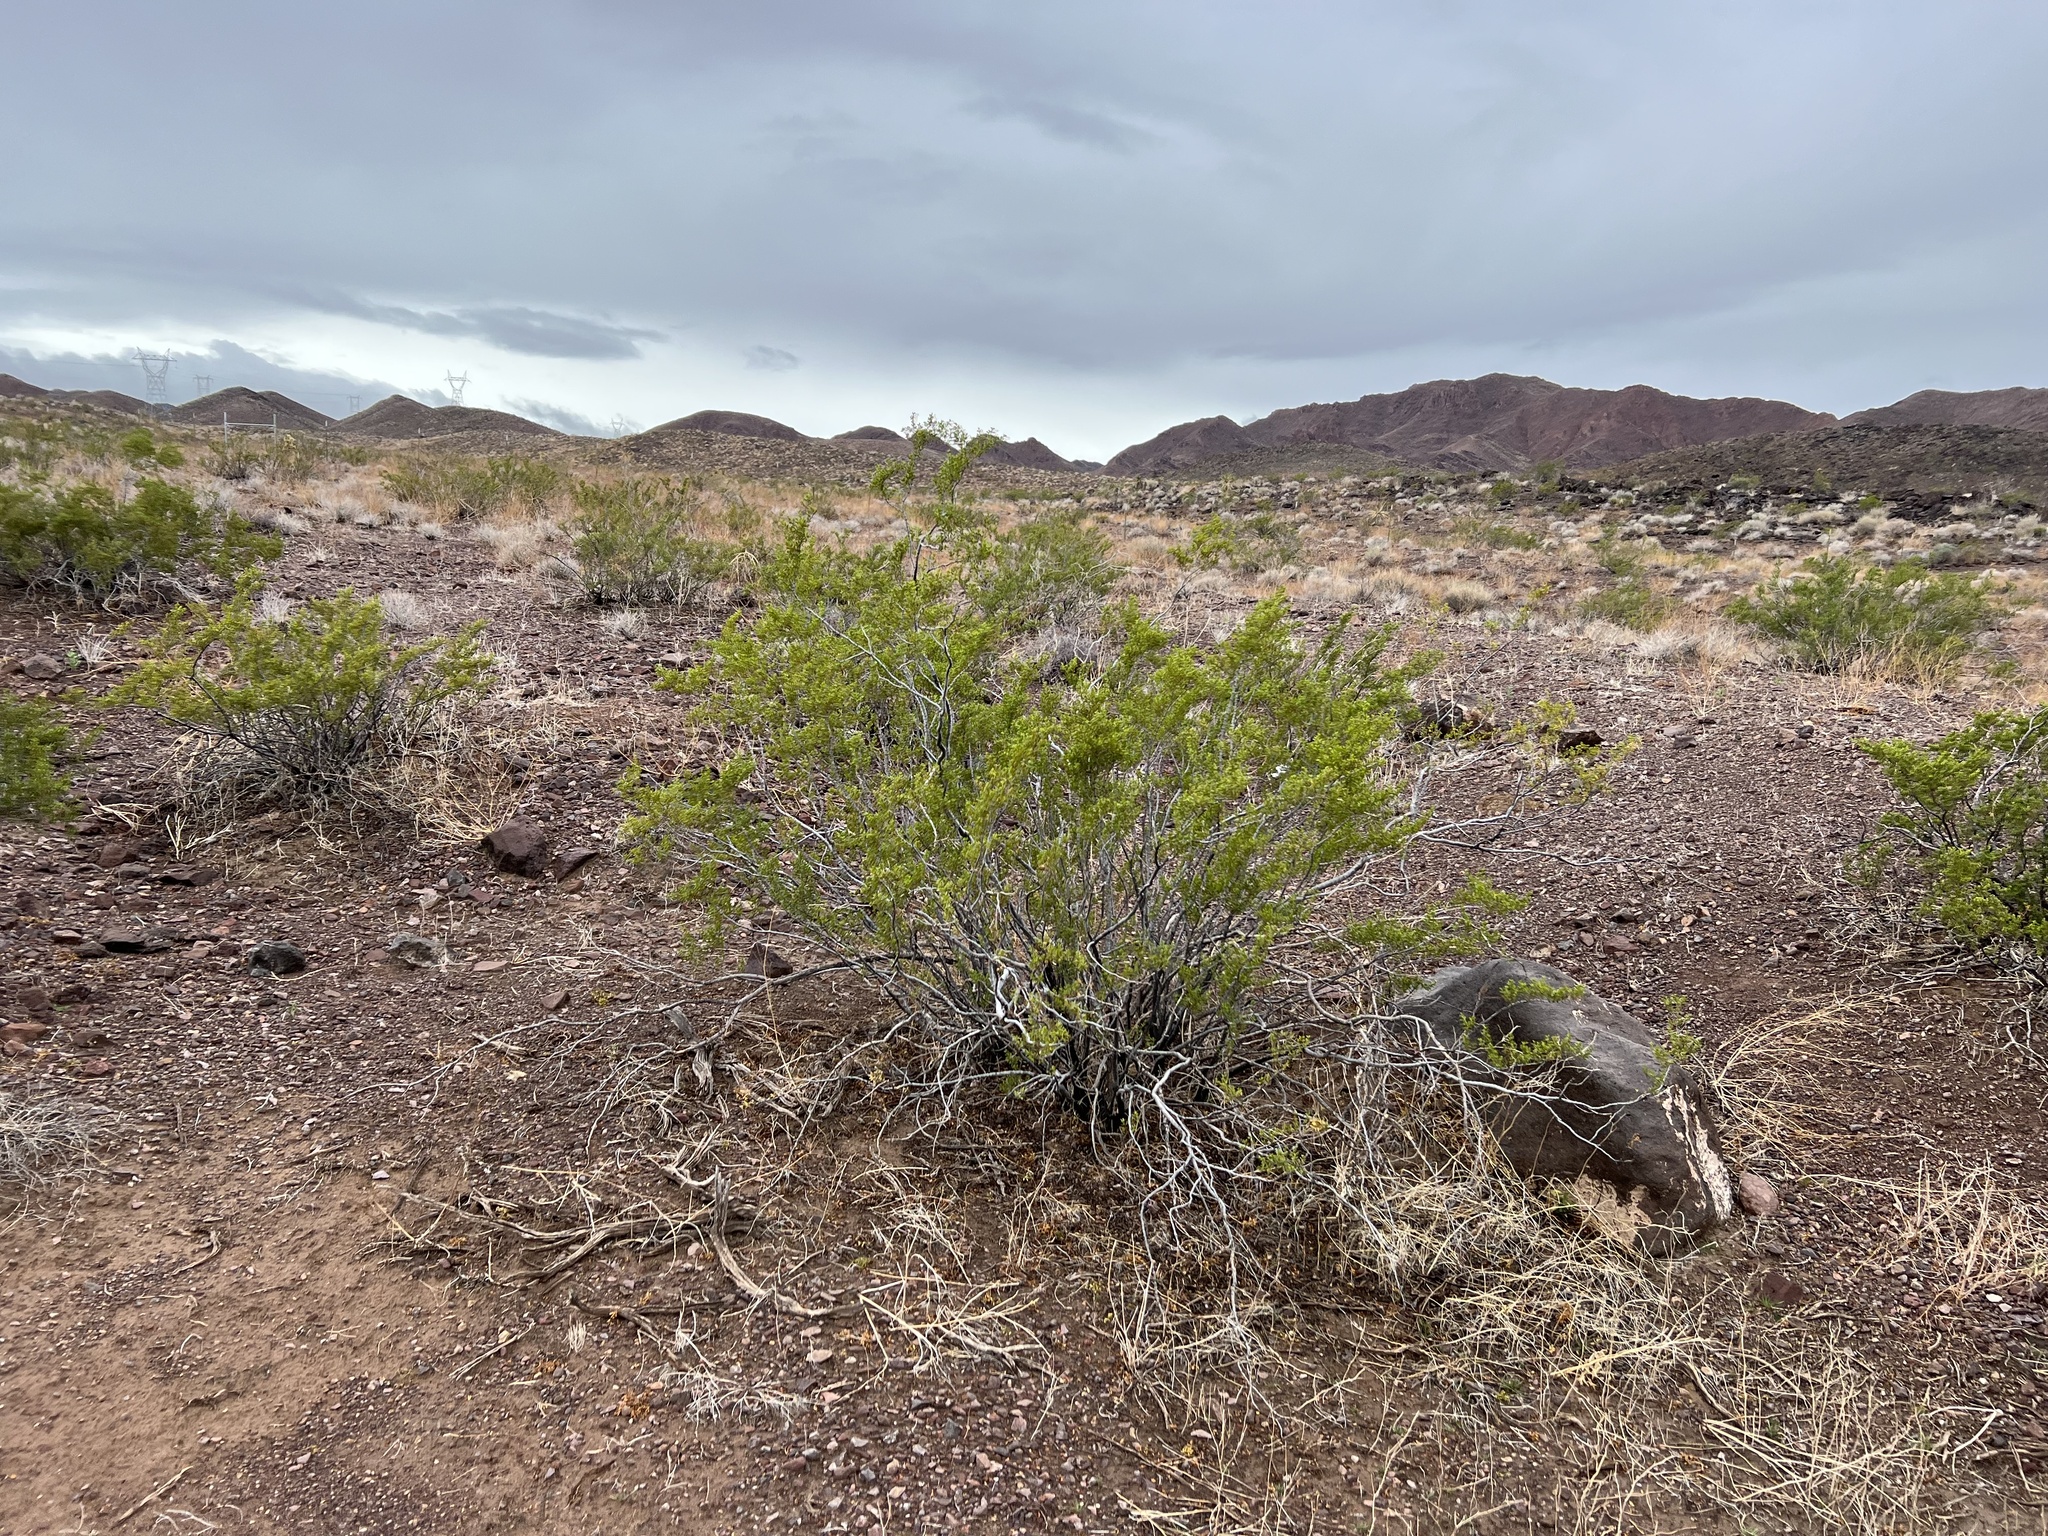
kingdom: Plantae
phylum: Tracheophyta
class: Magnoliopsida
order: Zygophyllales
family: Zygophyllaceae
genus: Larrea
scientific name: Larrea tridentata
